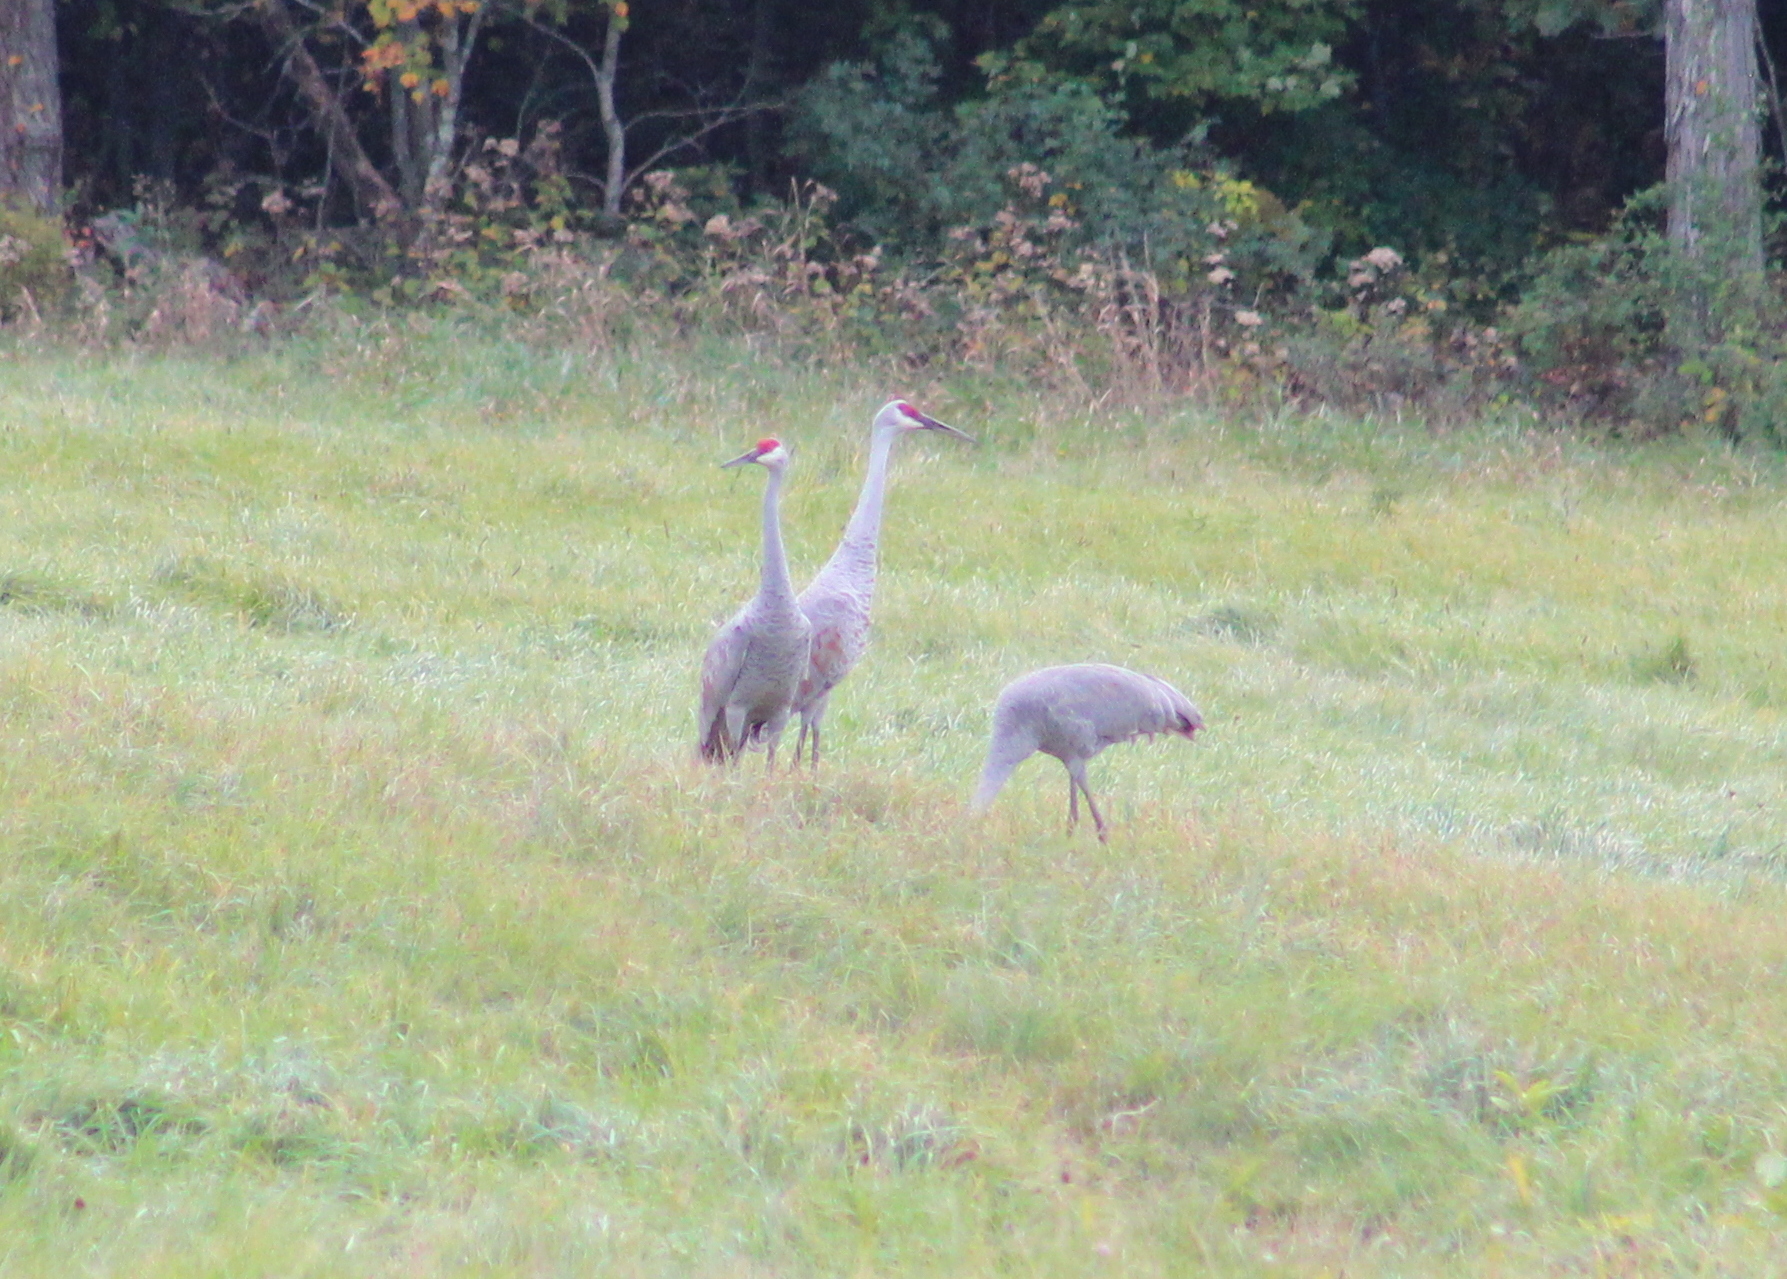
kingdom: Animalia
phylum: Chordata
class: Aves
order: Gruiformes
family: Gruidae
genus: Grus
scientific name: Grus canadensis
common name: Sandhill crane
